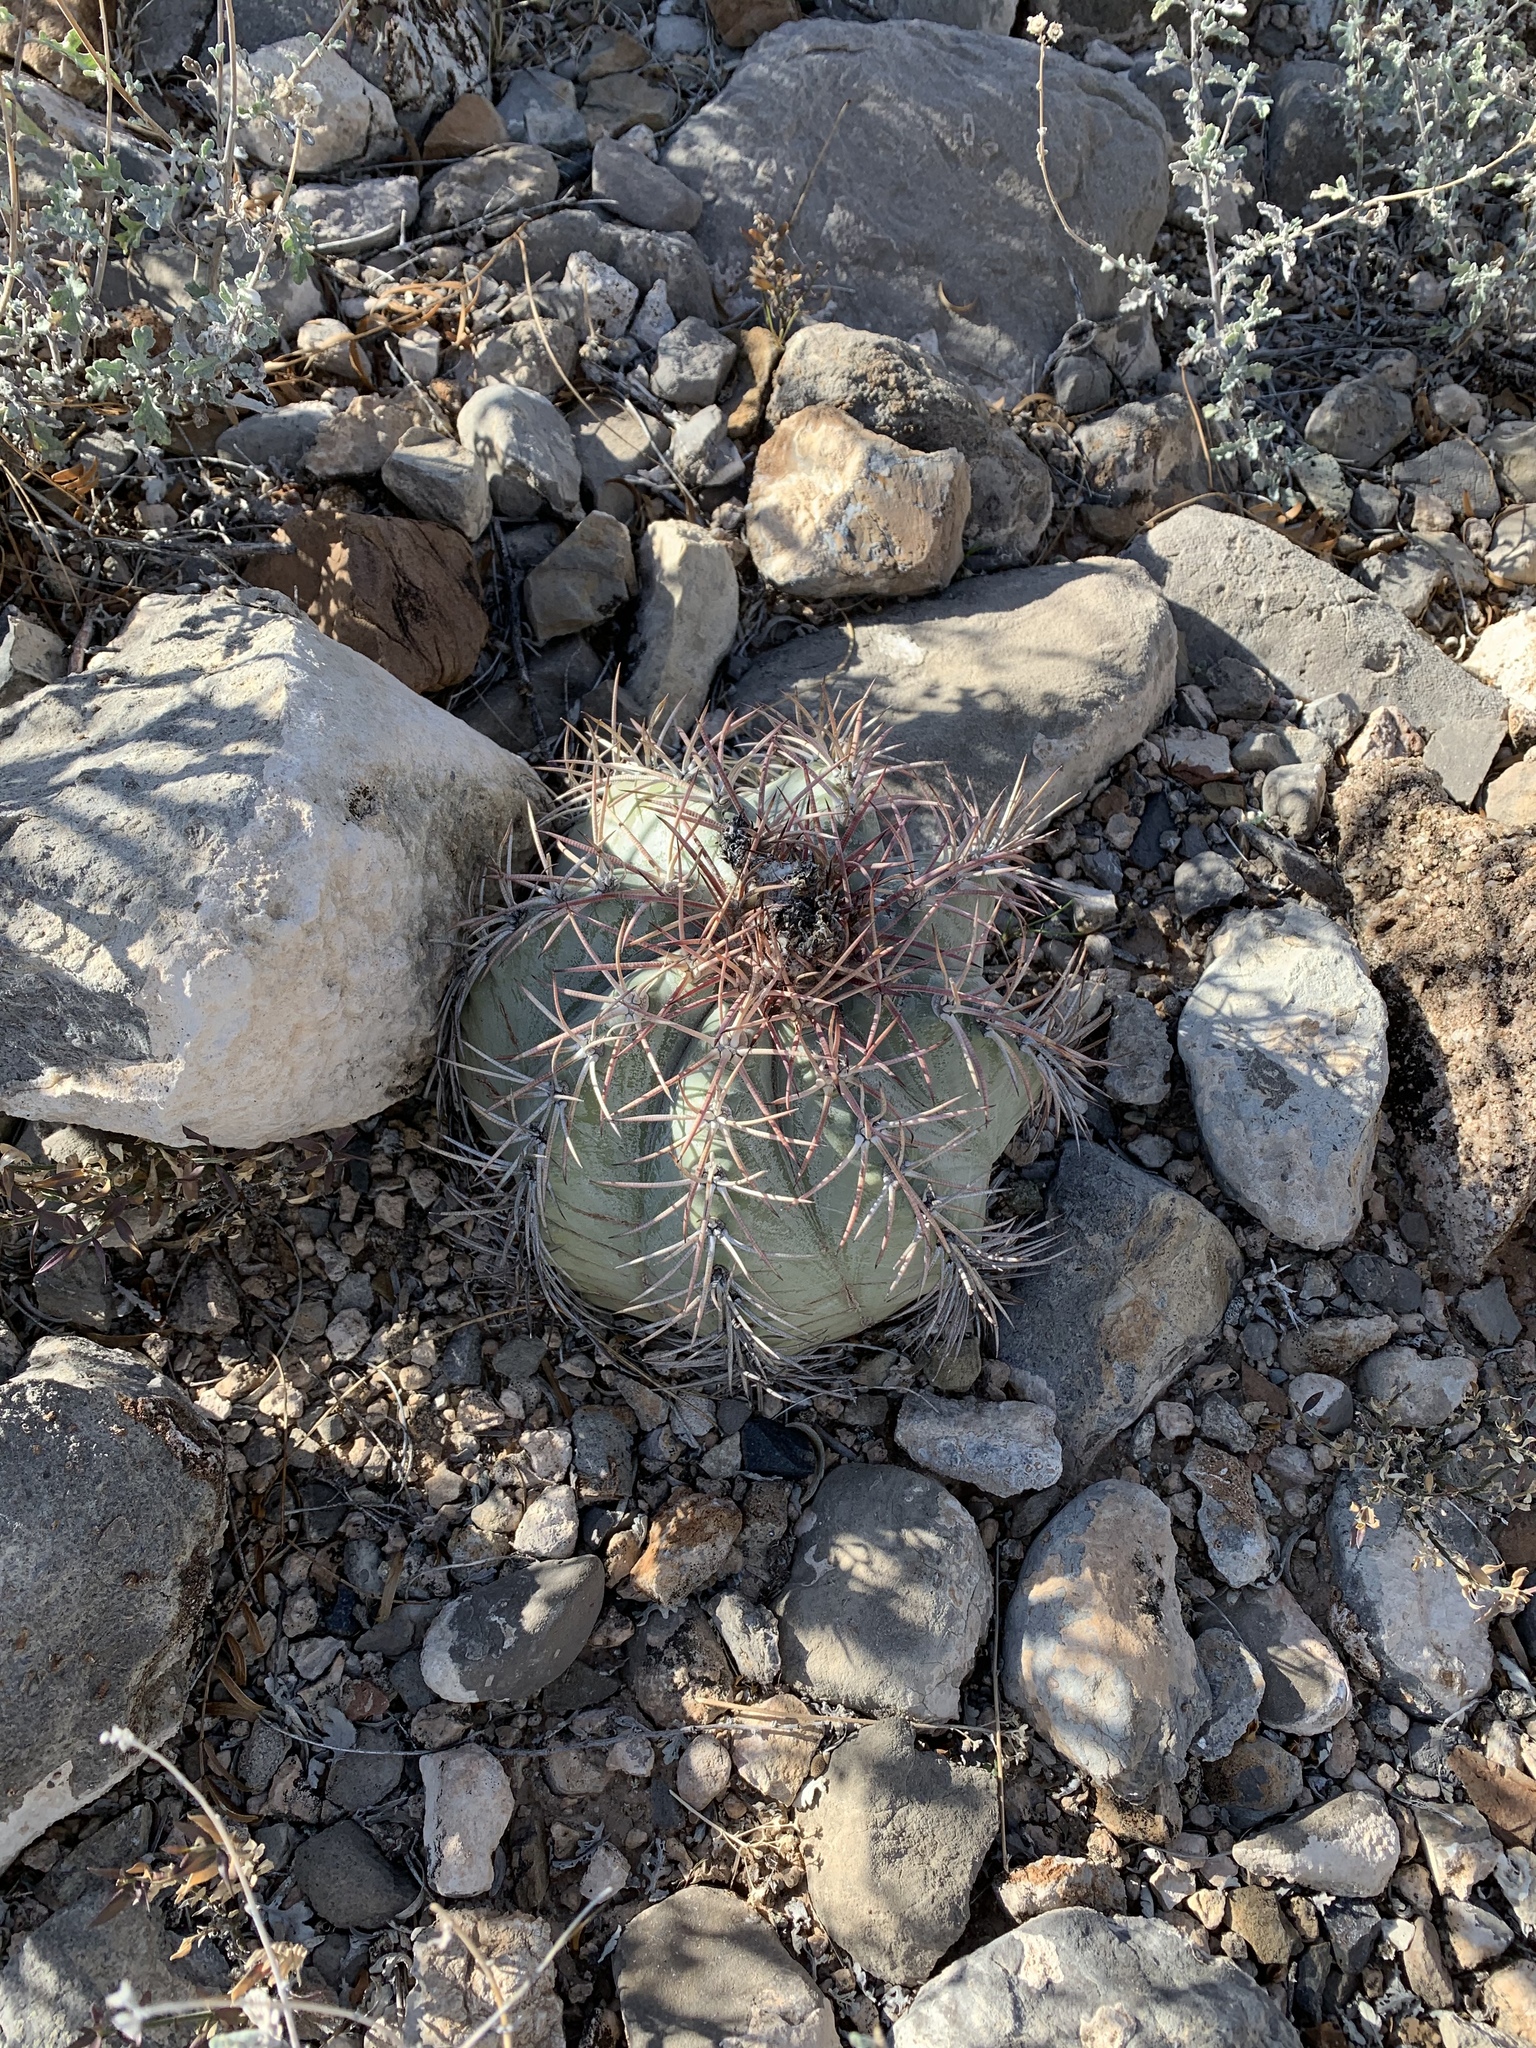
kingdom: Plantae
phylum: Tracheophyta
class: Magnoliopsida
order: Caryophyllales
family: Cactaceae
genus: Echinocactus
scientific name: Echinocactus horizonthalonius
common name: Devilshead
